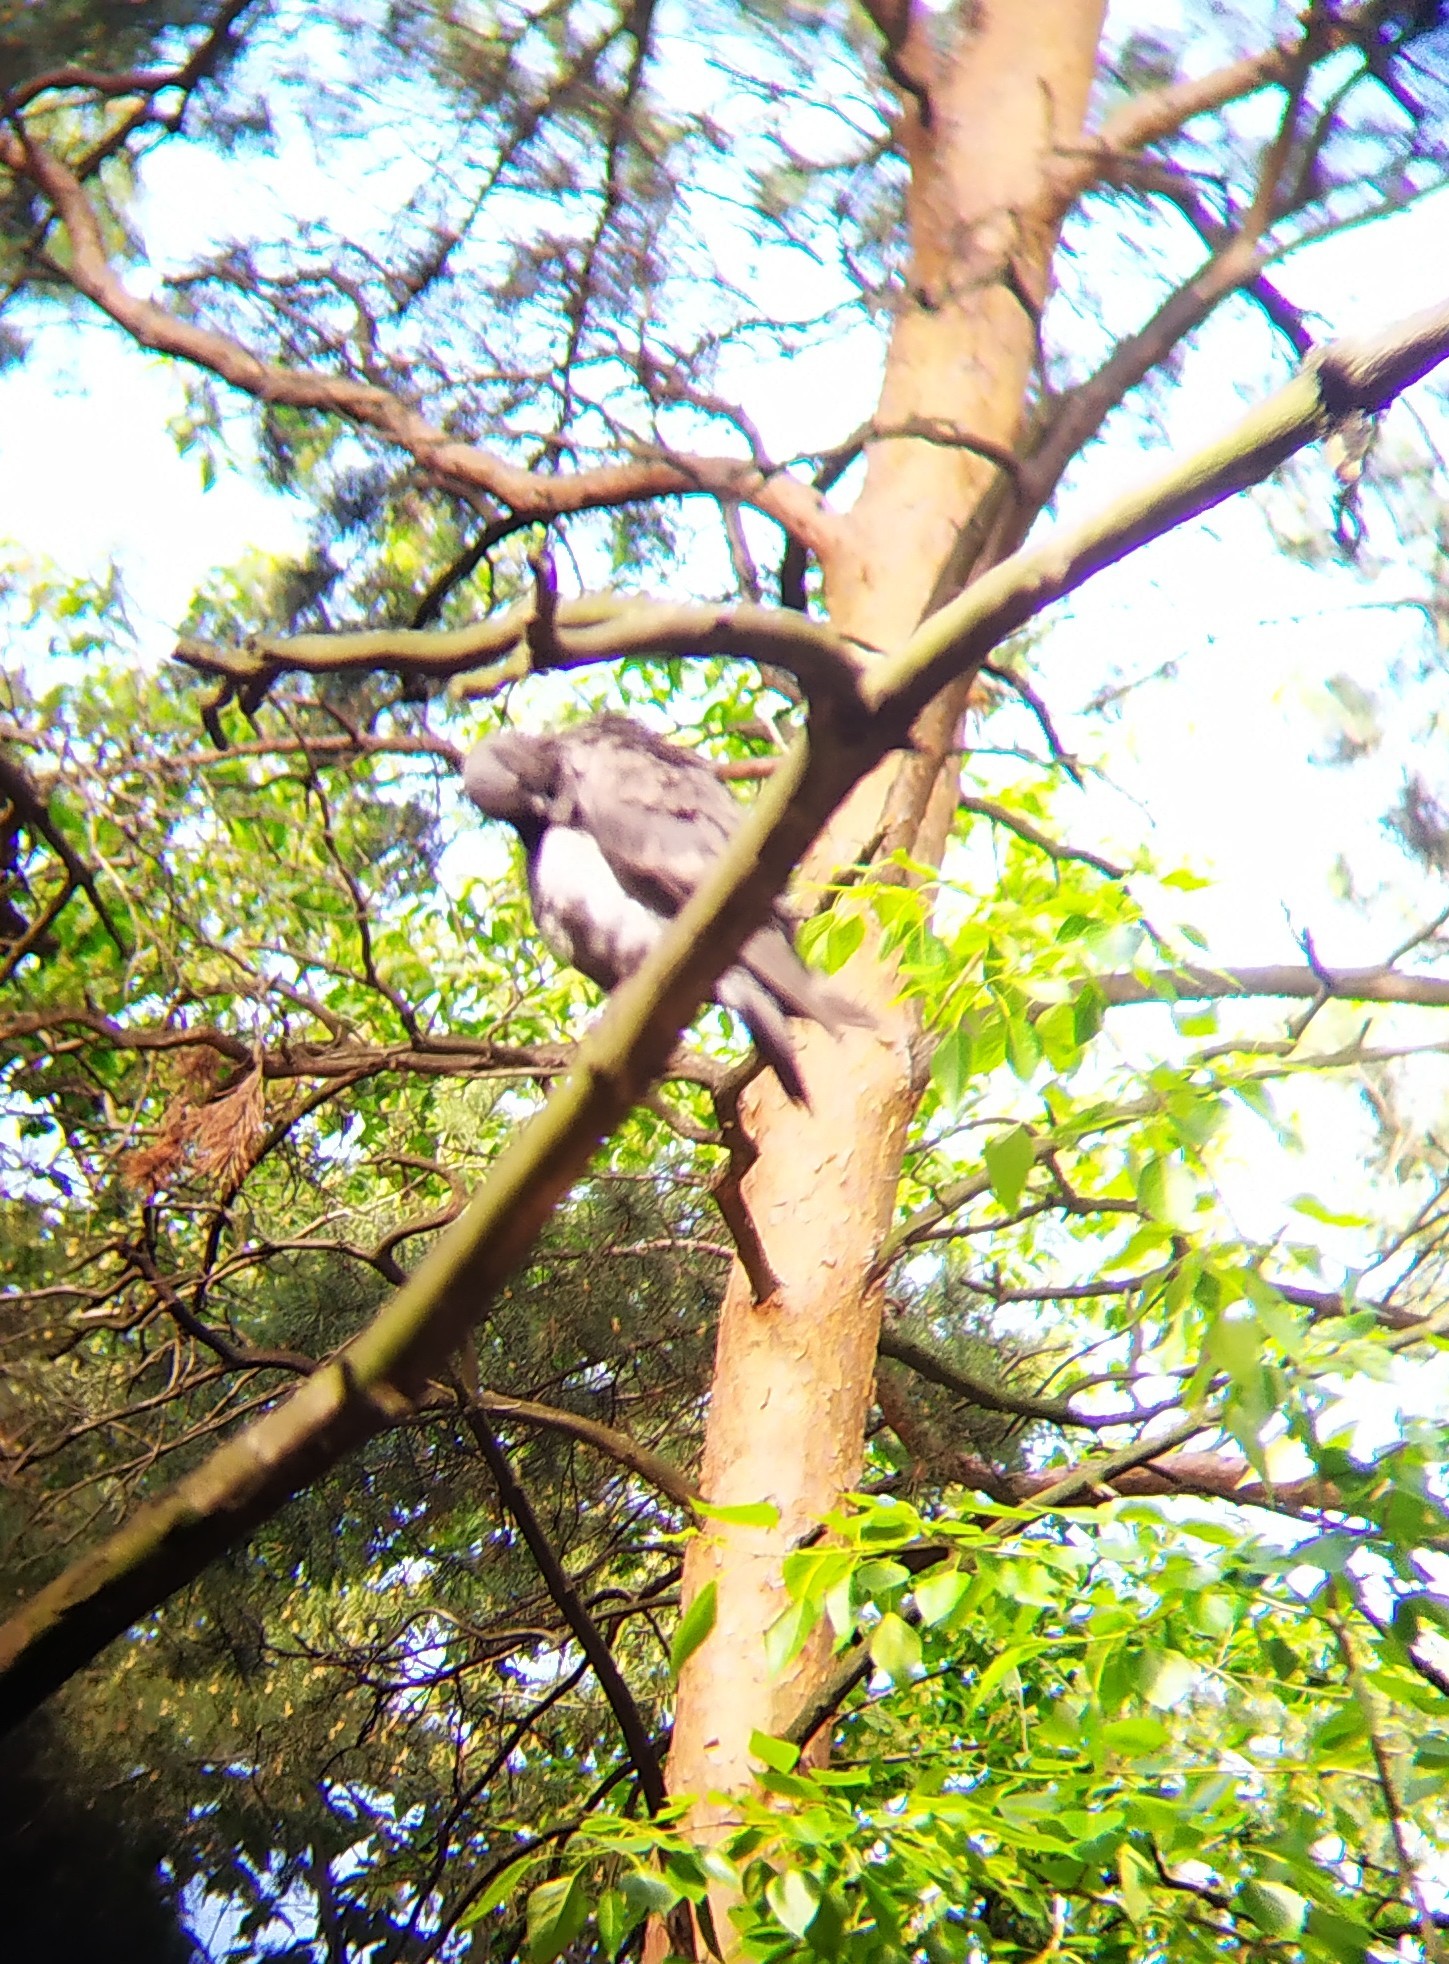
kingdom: Animalia
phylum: Chordata
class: Aves
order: Columbiformes
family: Columbidae
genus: Columba
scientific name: Columba livia
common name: Rock pigeon
